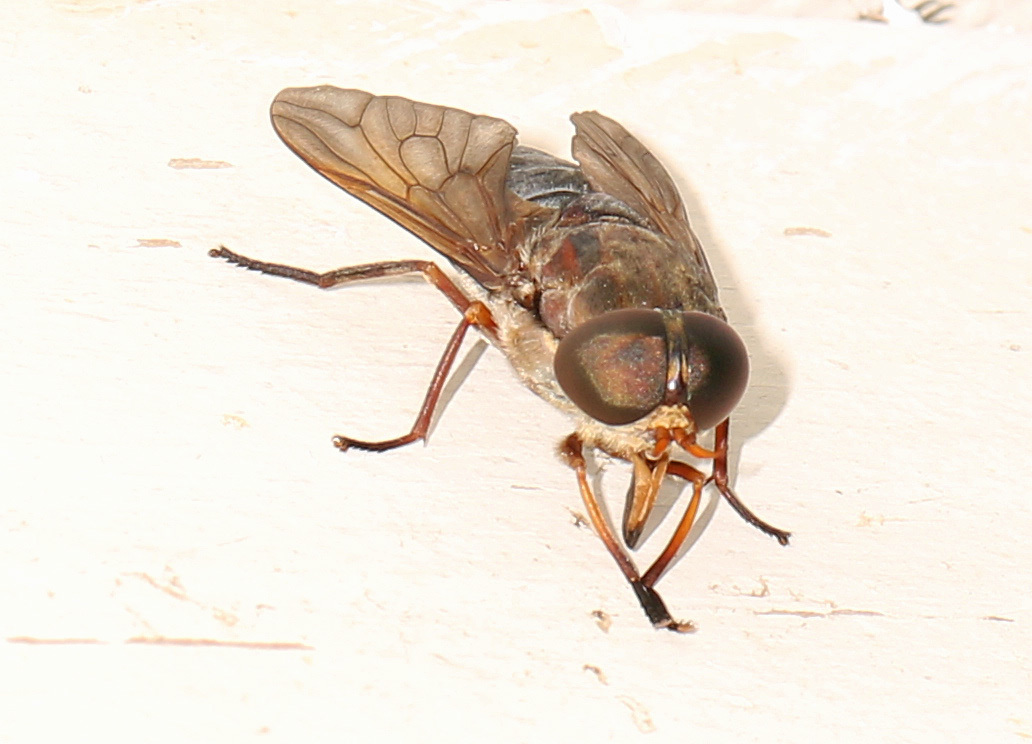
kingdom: Animalia
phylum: Arthropoda
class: Insecta
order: Diptera
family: Tabanidae
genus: Tabanus
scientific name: Tabanus calens
